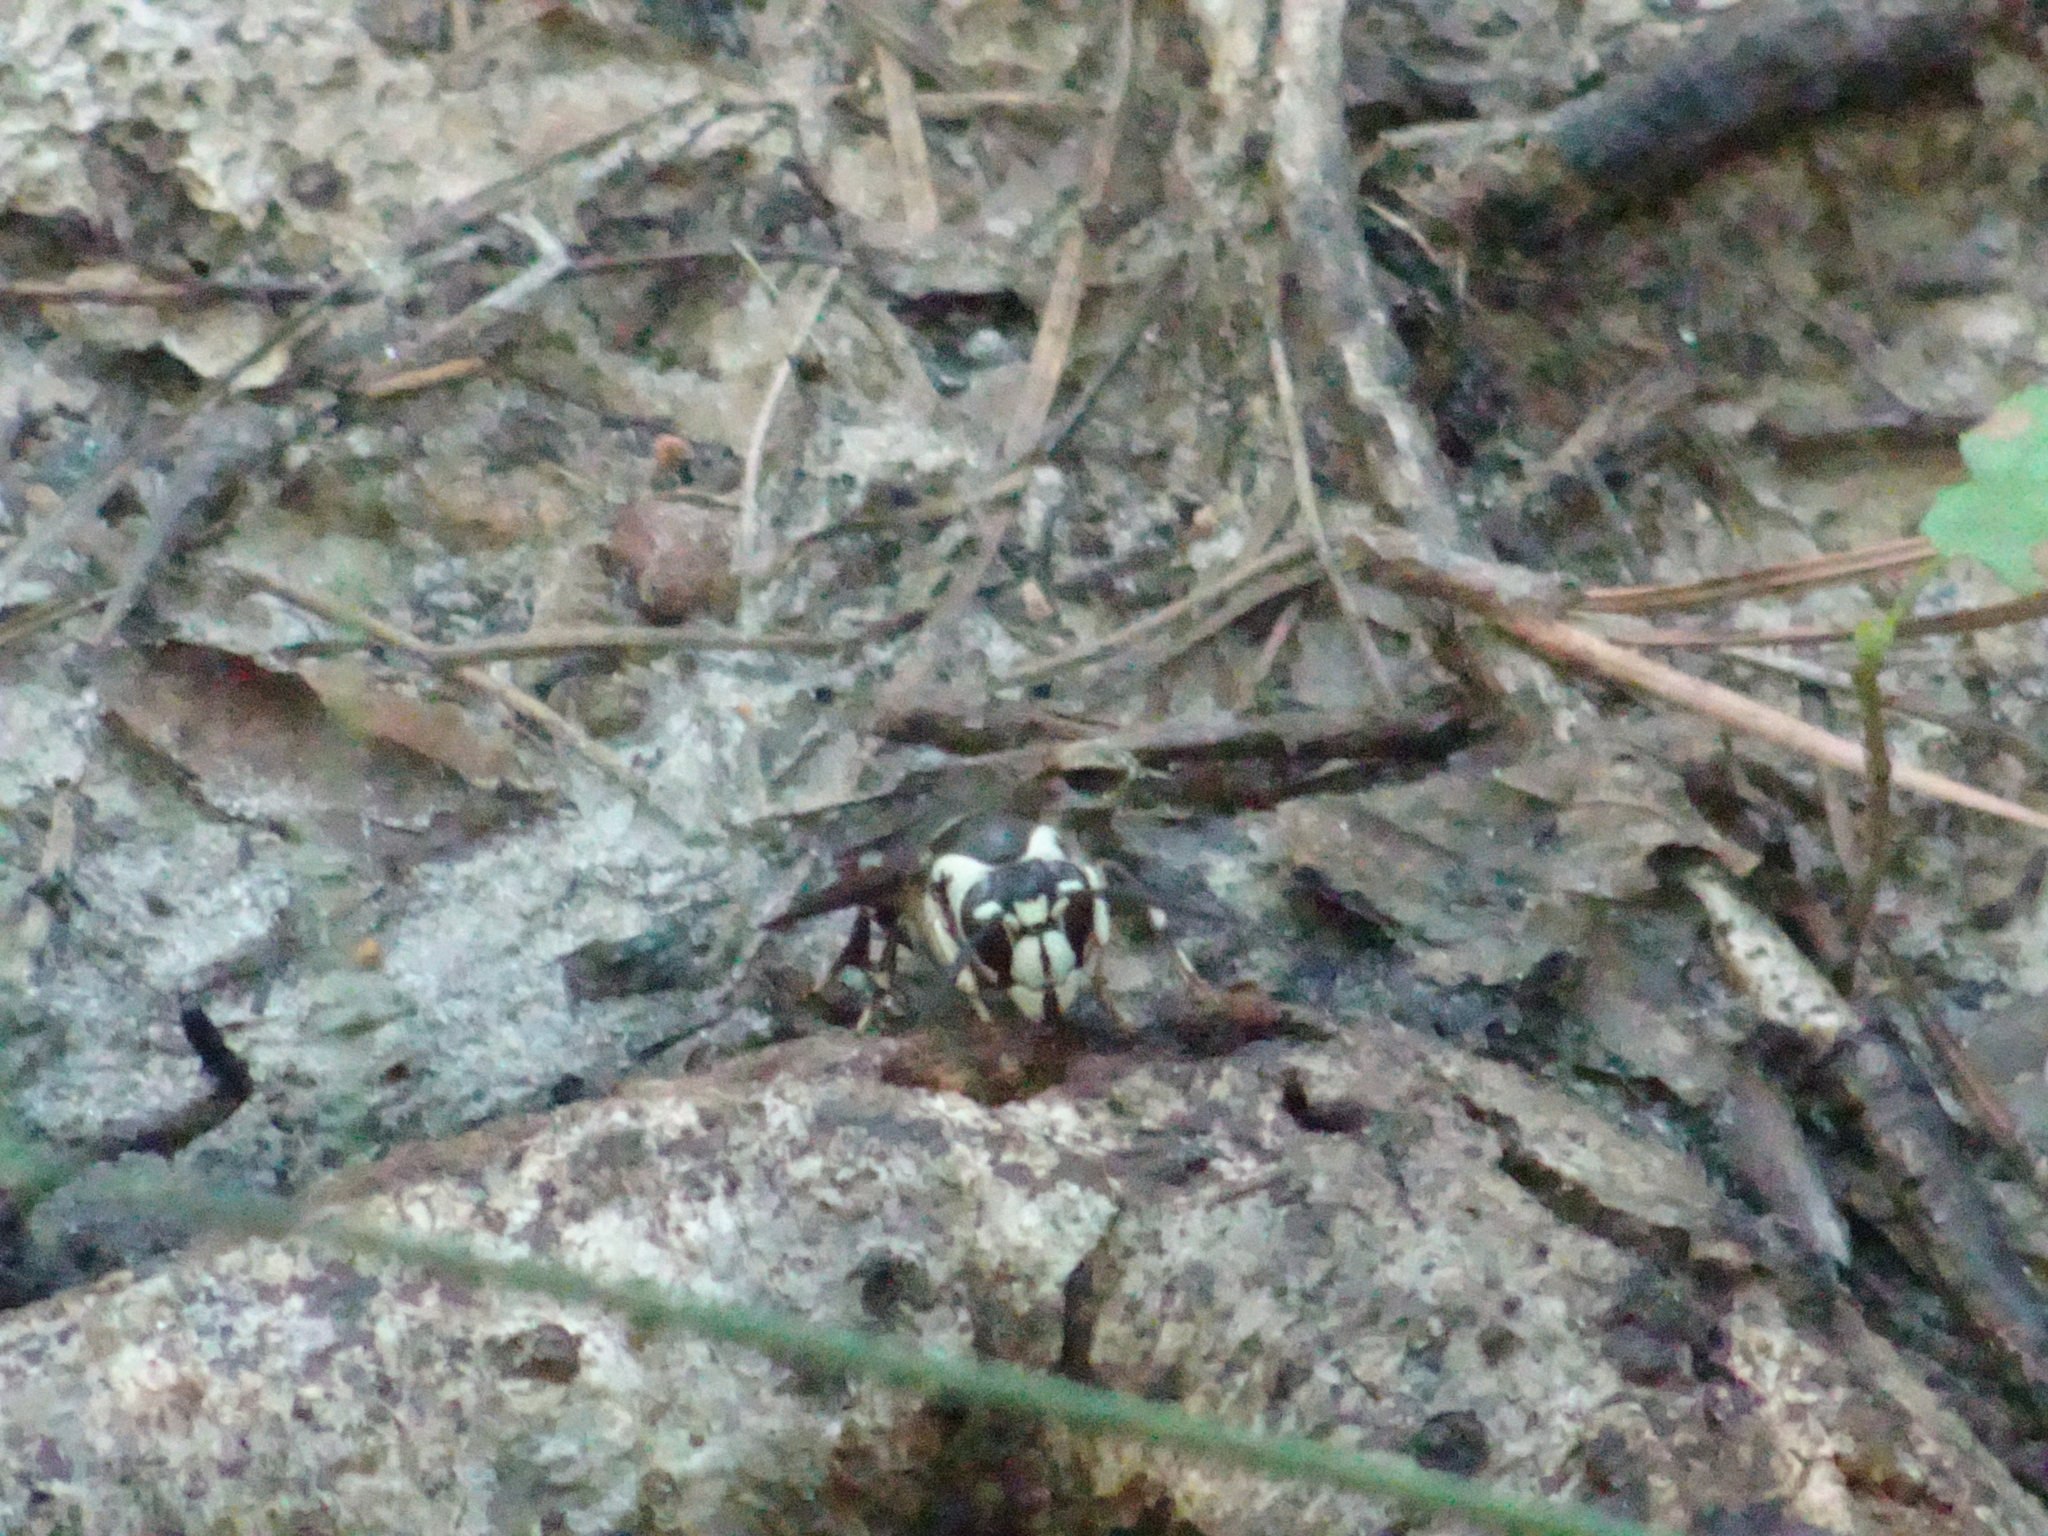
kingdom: Animalia
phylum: Arthropoda
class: Insecta
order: Hymenoptera
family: Vespidae
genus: Dolichovespula
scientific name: Dolichovespula maculata
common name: Bald-faced hornet
